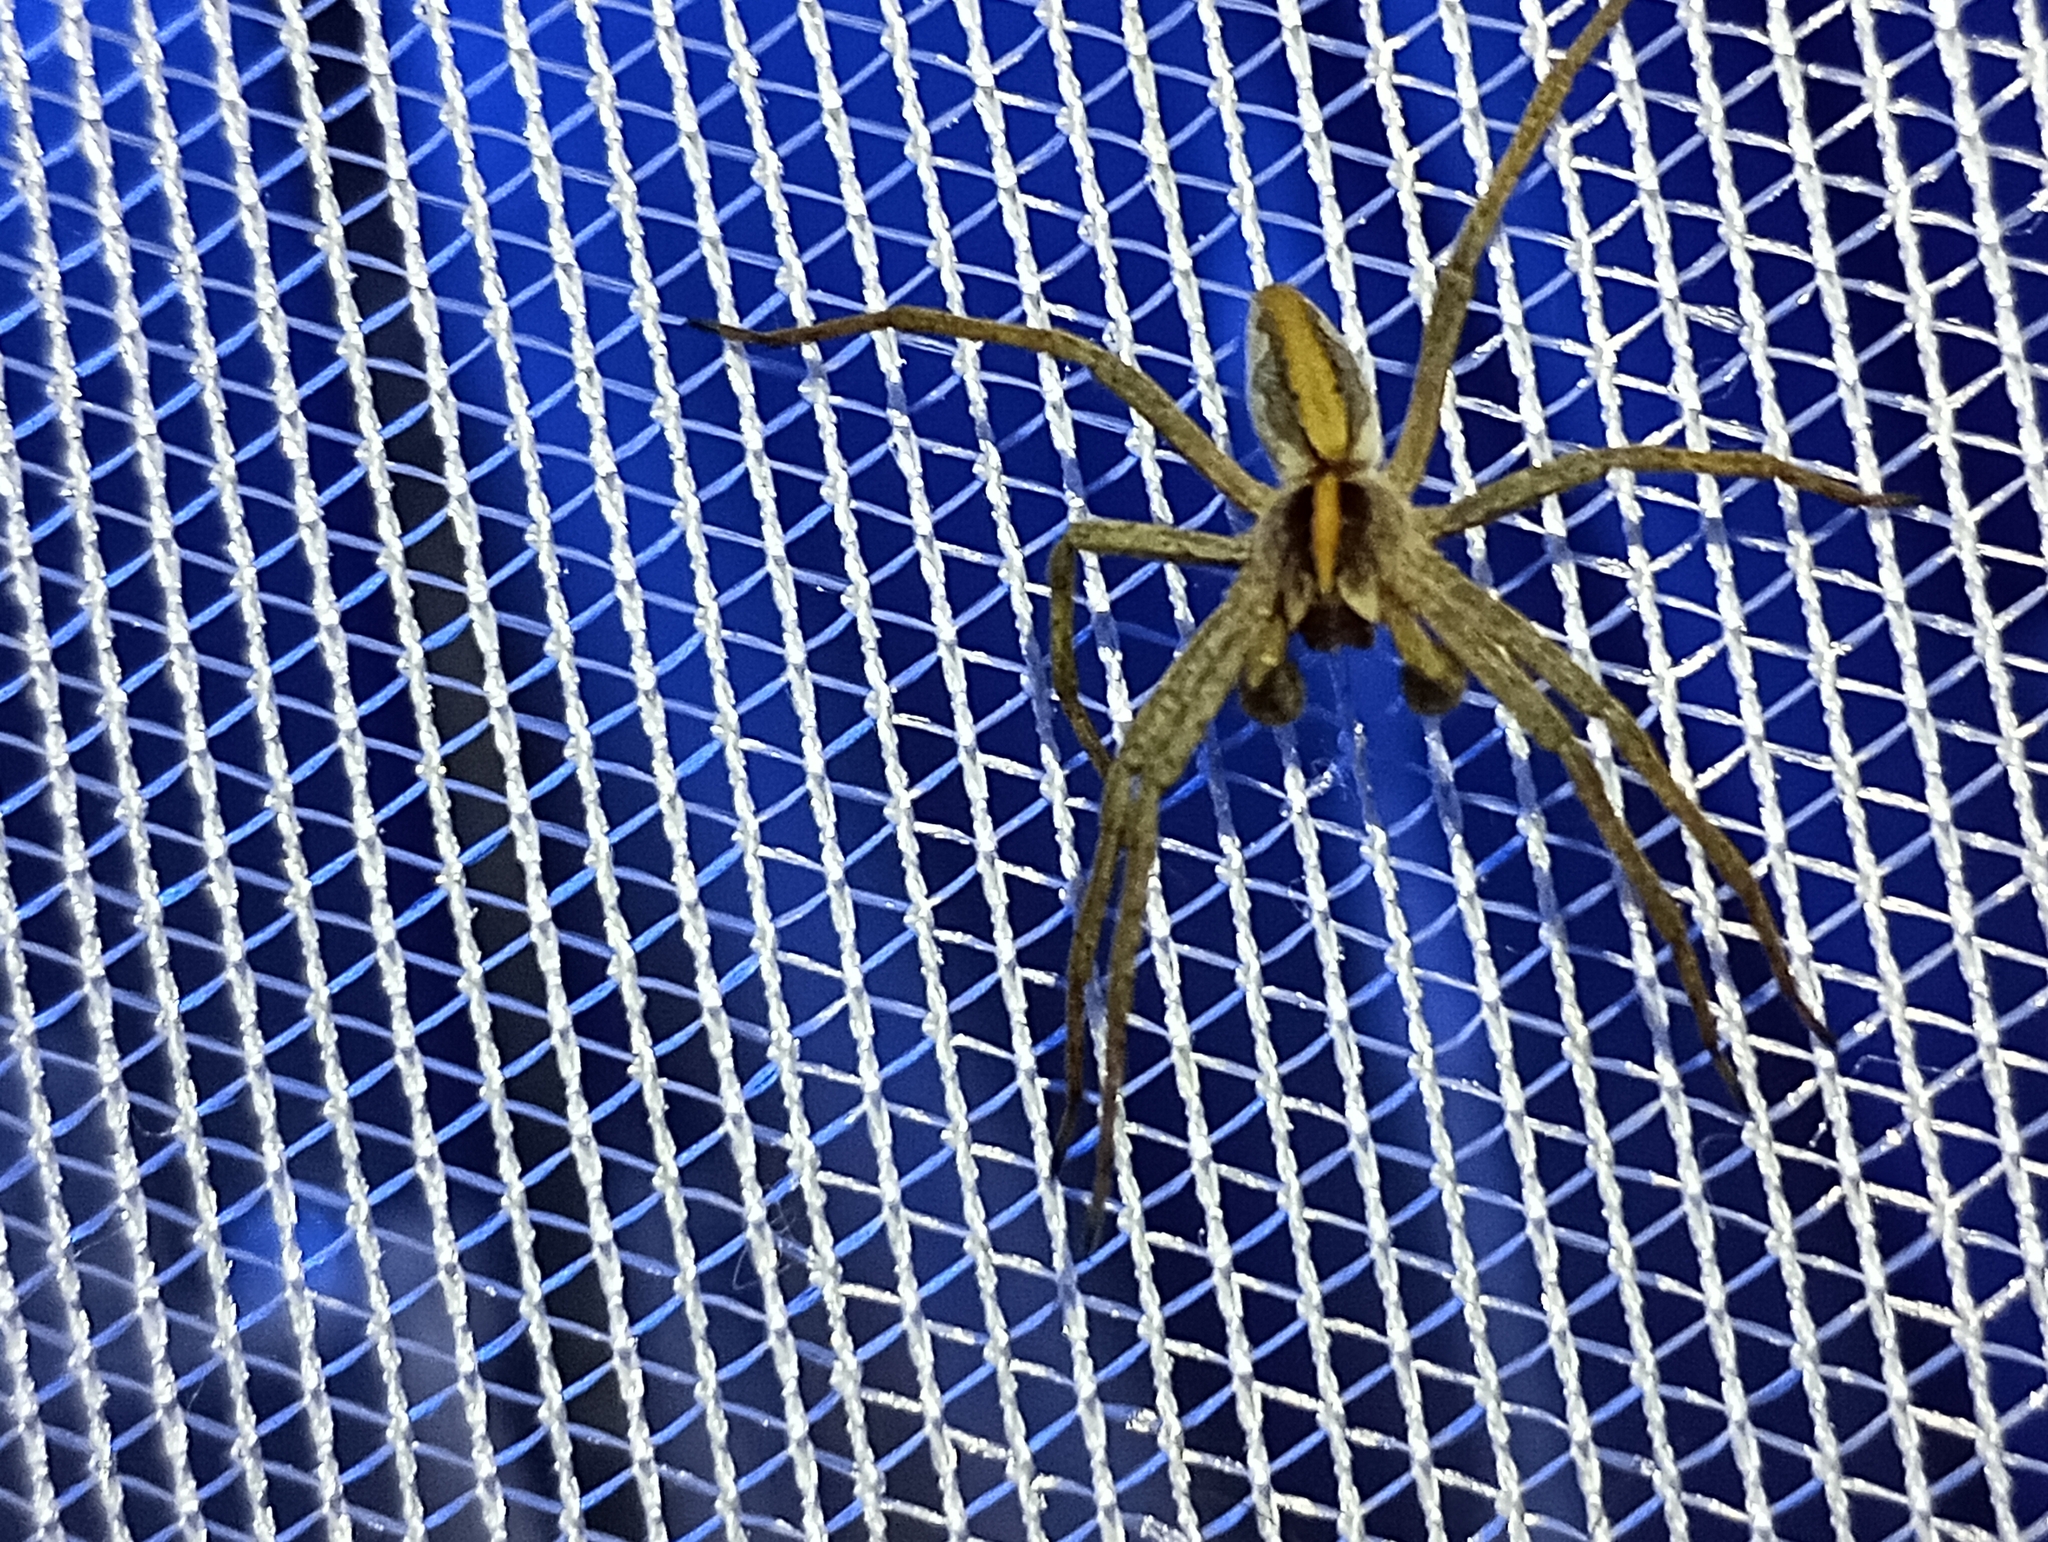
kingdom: Animalia
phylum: Arthropoda
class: Arachnida
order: Araneae
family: Pisauridae
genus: Pisaura
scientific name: Pisaura mirabilis
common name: Tent spider
